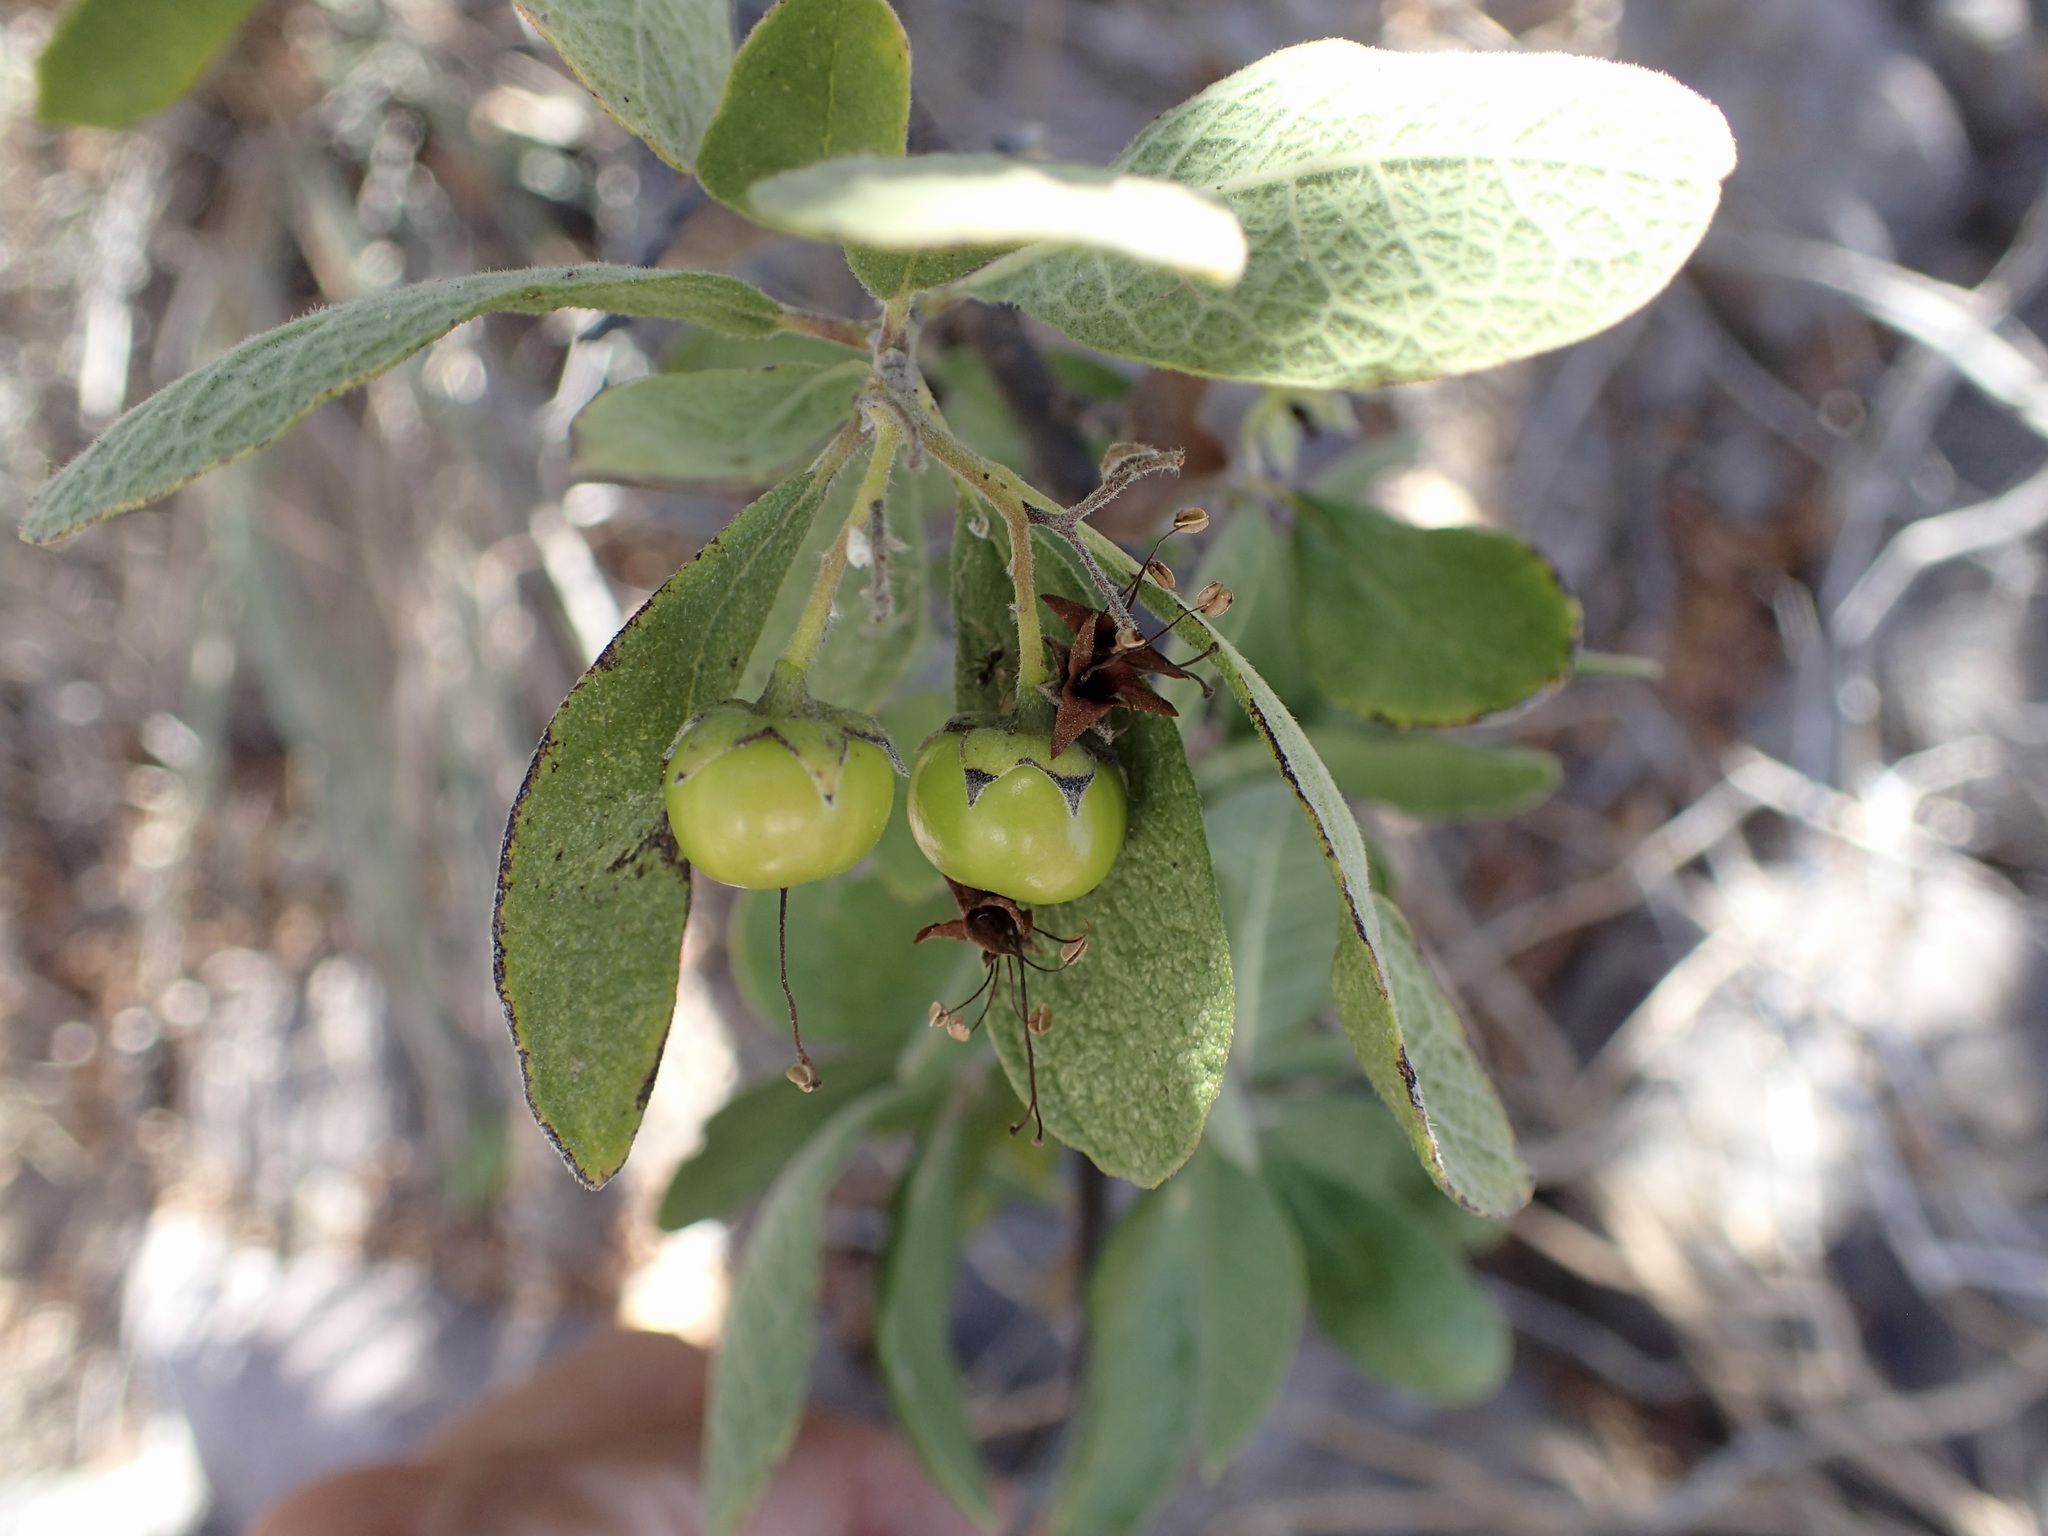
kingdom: Plantae
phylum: Tracheophyta
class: Magnoliopsida
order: Boraginales
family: Ehretiaceae
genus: Bourreria
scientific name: Bourreria sonorae
